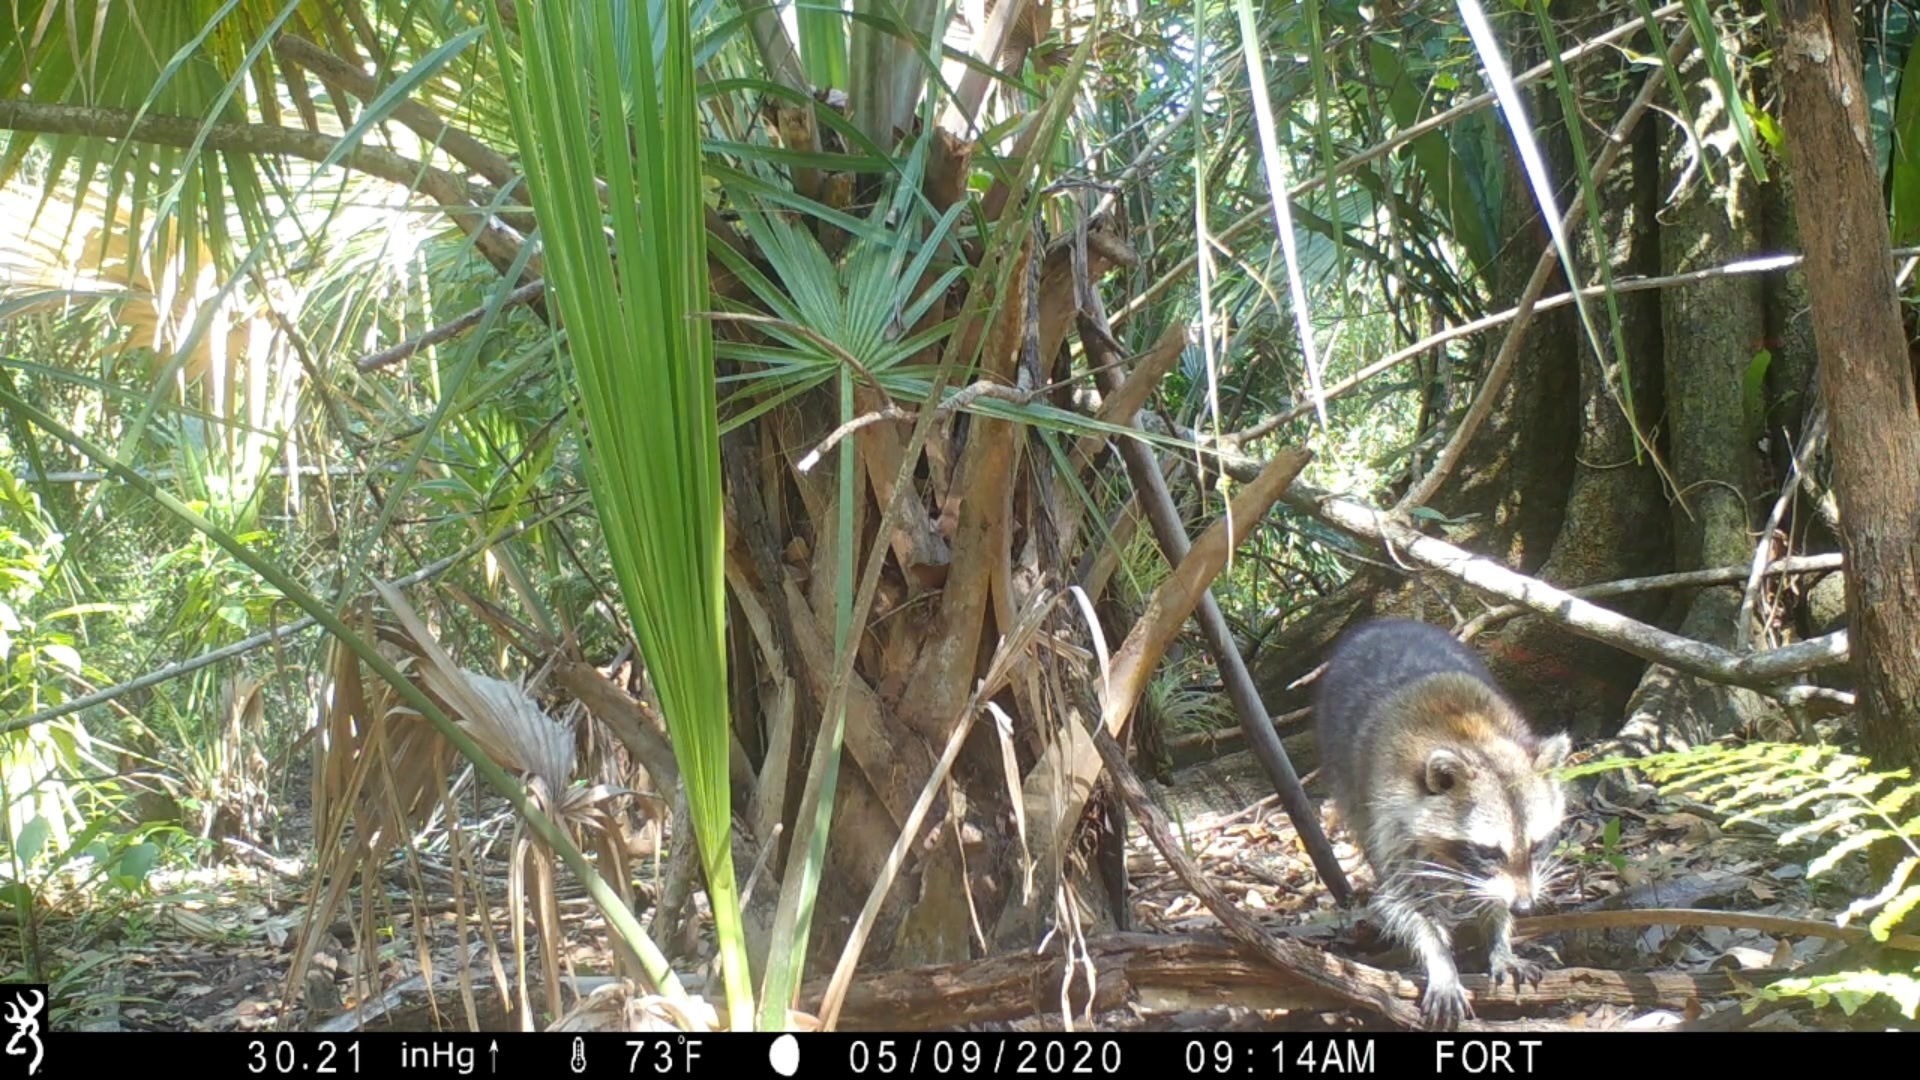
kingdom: Animalia
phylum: Chordata
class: Mammalia
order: Carnivora
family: Procyonidae
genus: Procyon
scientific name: Procyon lotor
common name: Raccoon
